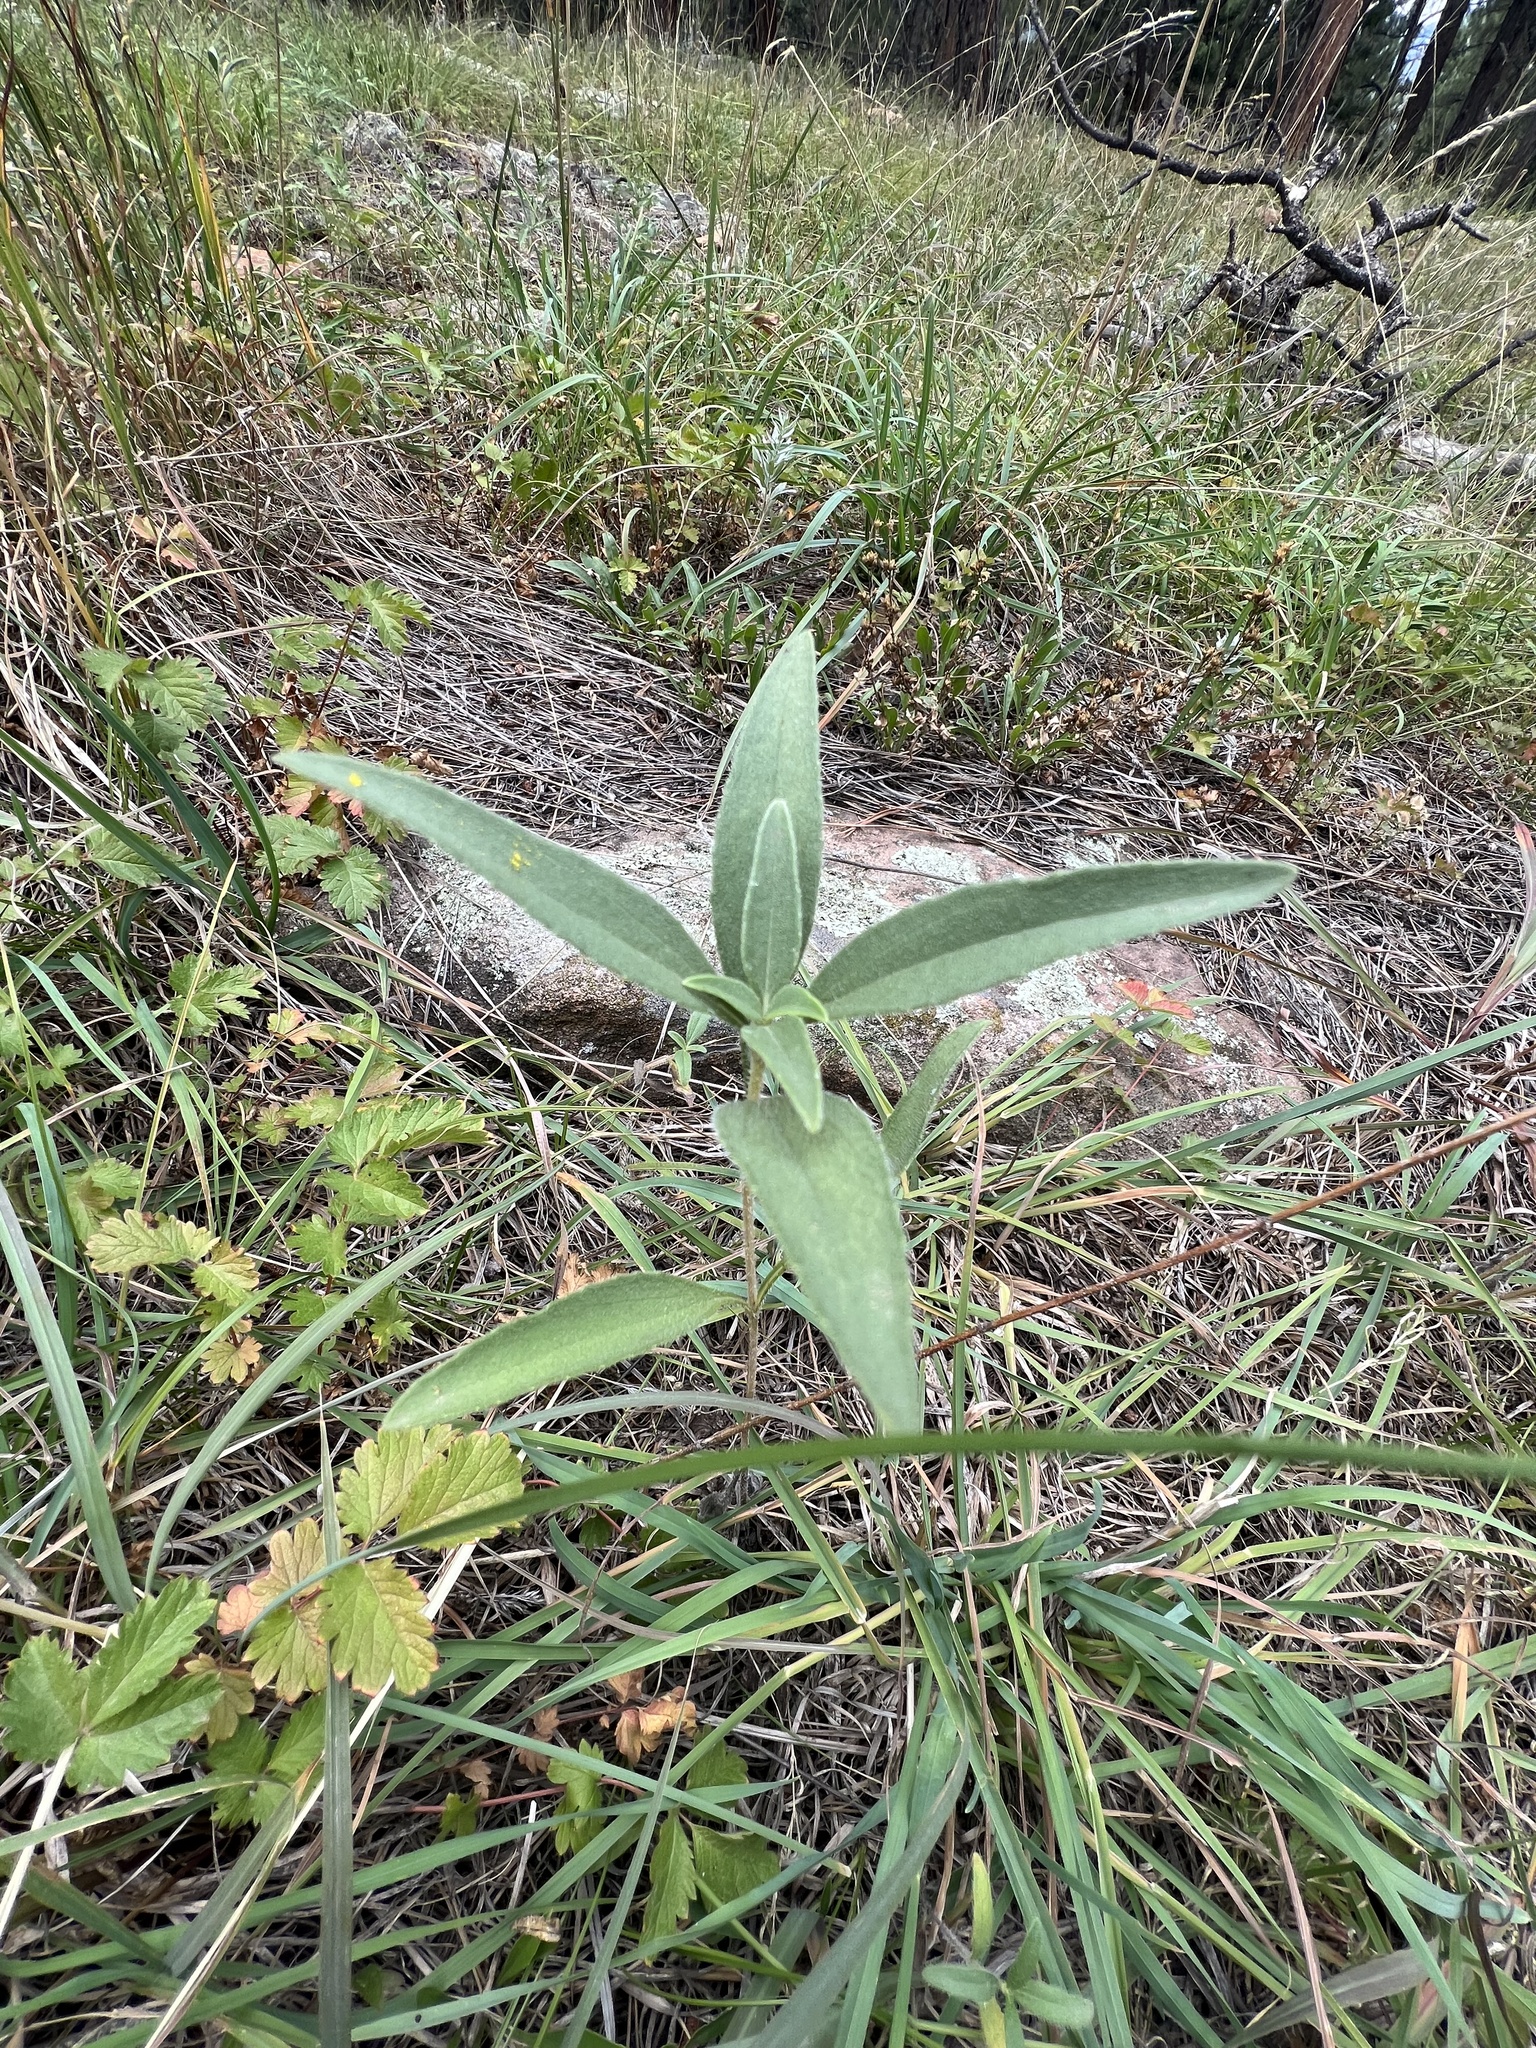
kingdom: Plantae
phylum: Tracheophyta
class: Magnoliopsida
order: Gentianales
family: Apocynaceae
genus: Asclepias
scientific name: Asclepias speciosa
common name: Showy milkweed
